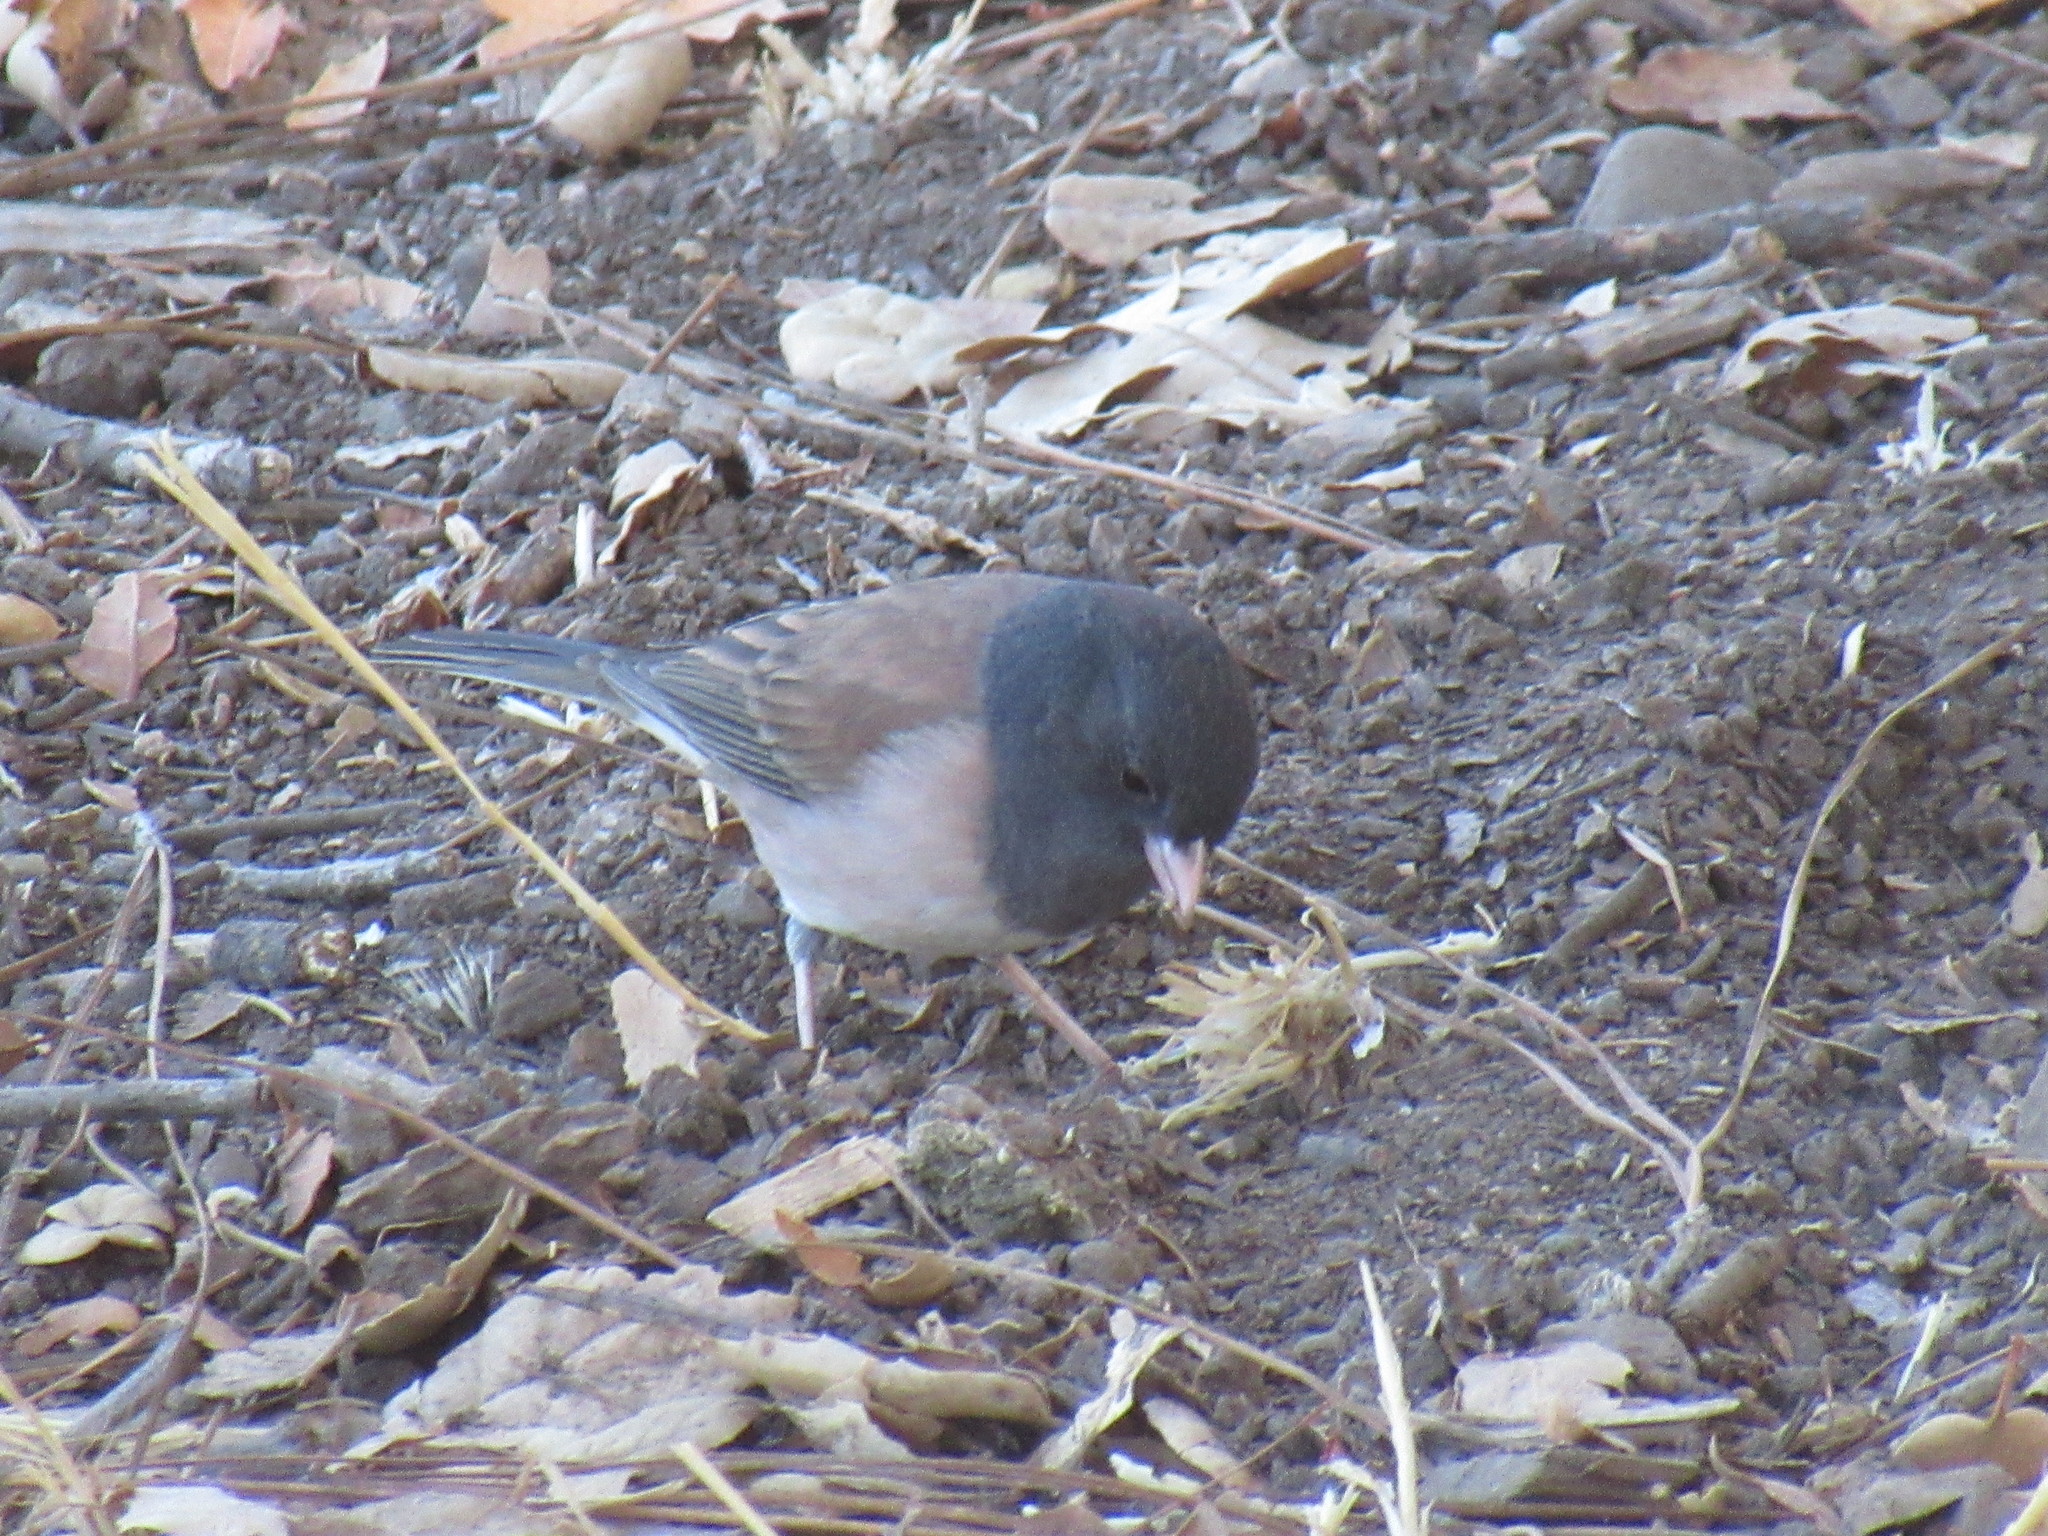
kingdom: Animalia
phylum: Chordata
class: Aves
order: Passeriformes
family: Passerellidae
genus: Junco
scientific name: Junco hyemalis
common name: Dark-eyed junco
